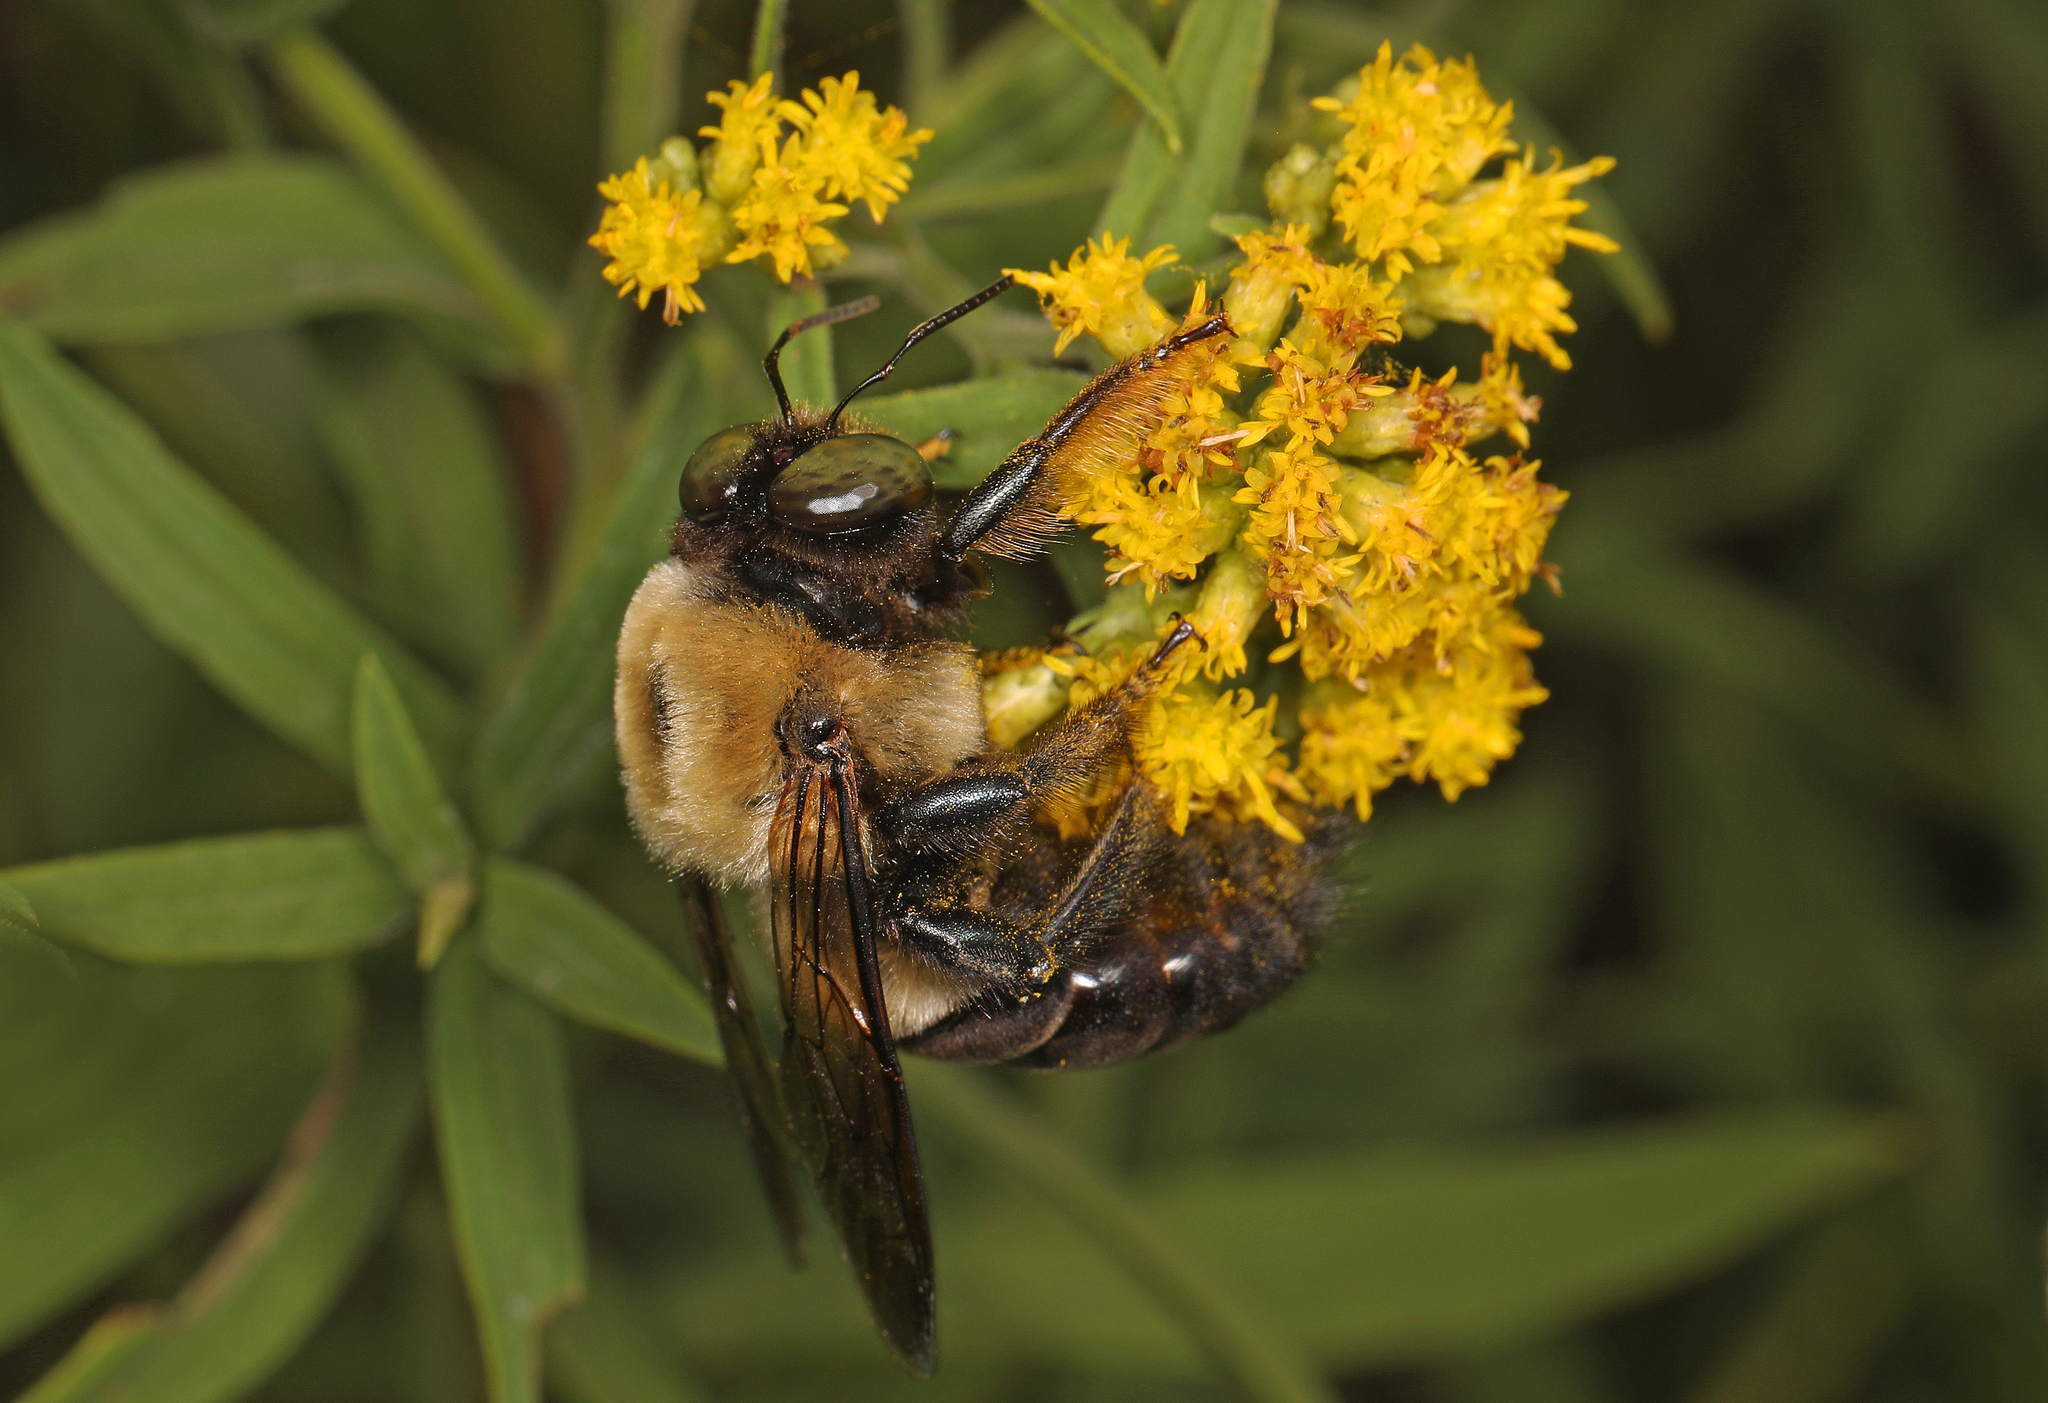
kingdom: Animalia
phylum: Arthropoda
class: Insecta
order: Hymenoptera
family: Apidae
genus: Xylocopa
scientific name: Xylocopa virginica
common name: Carpenter bee
